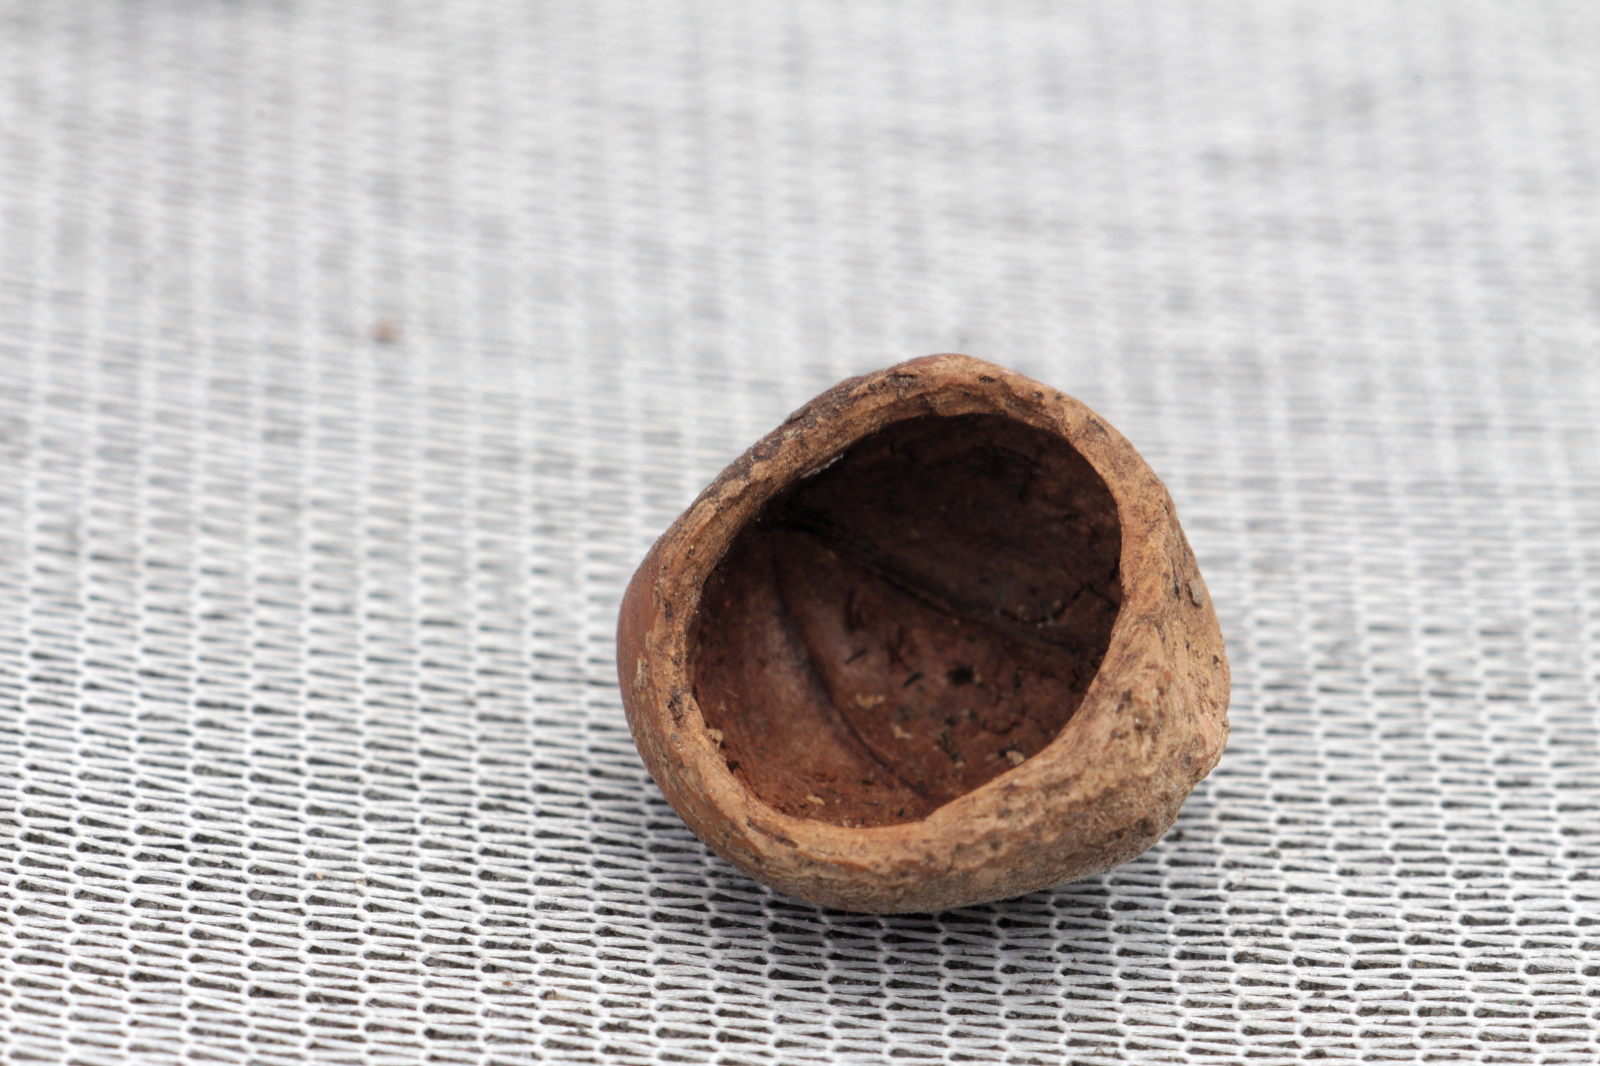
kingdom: Animalia
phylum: Chordata
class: Mammalia
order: Rodentia
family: Gliridae
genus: Muscardinus
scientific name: Muscardinus avellanarius
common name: Hazel dormouse
